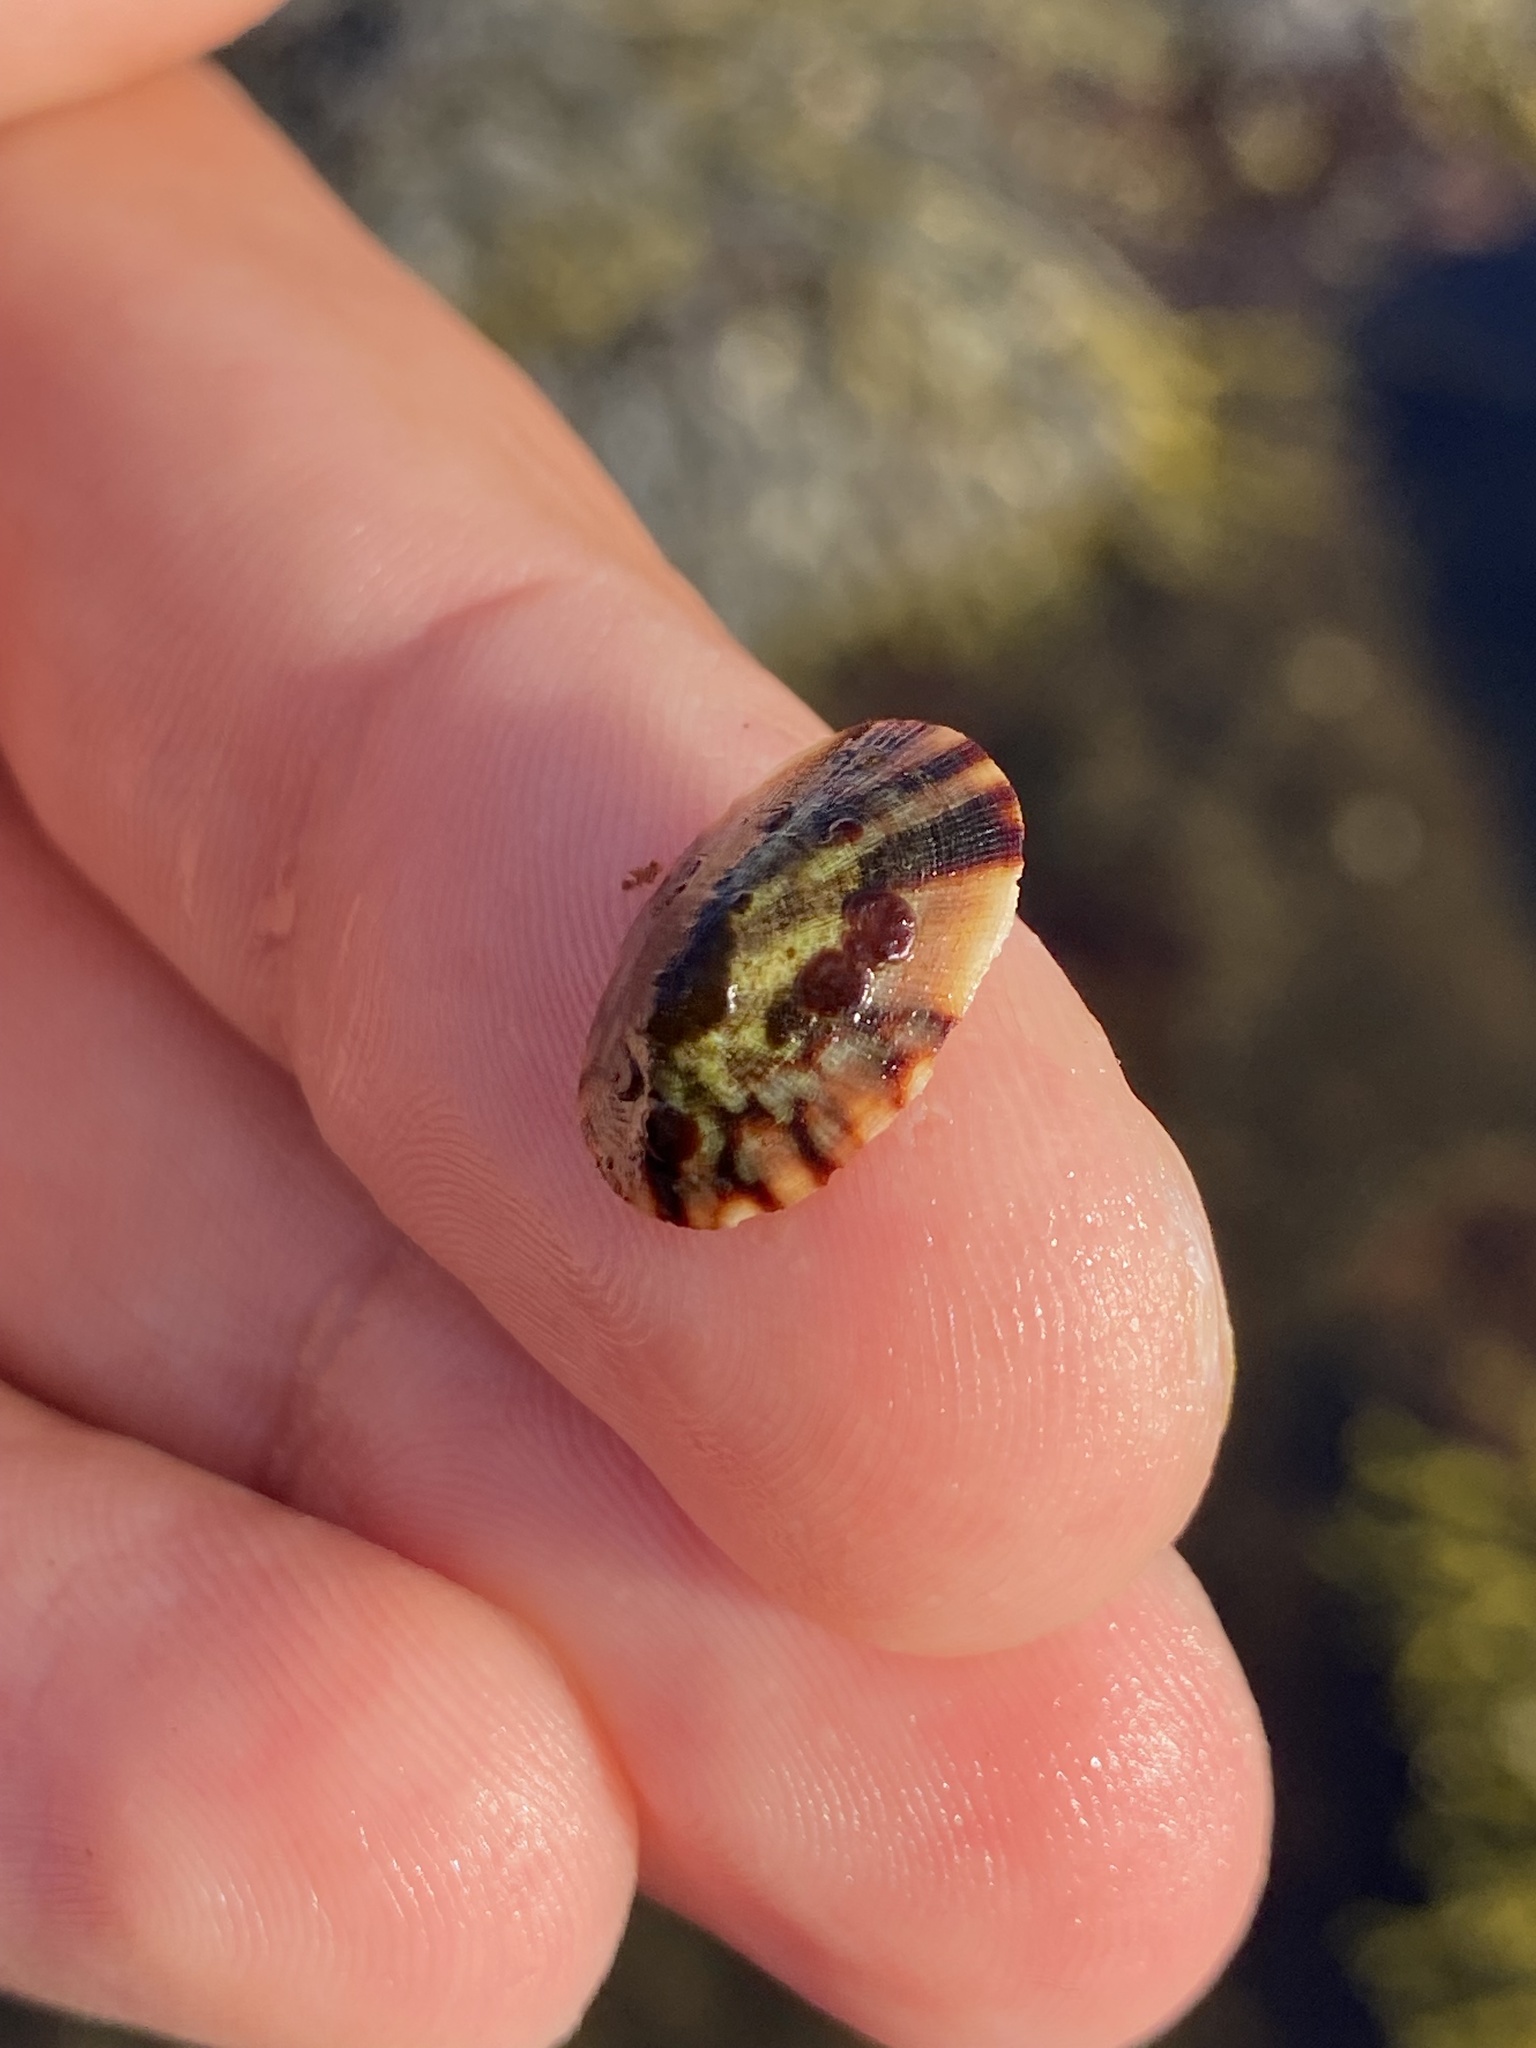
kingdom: Animalia
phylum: Mollusca
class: Gastropoda
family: Lottiidae
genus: Testudinalia
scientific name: Testudinalia testudinalis
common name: Common tortoiseshell limpet
